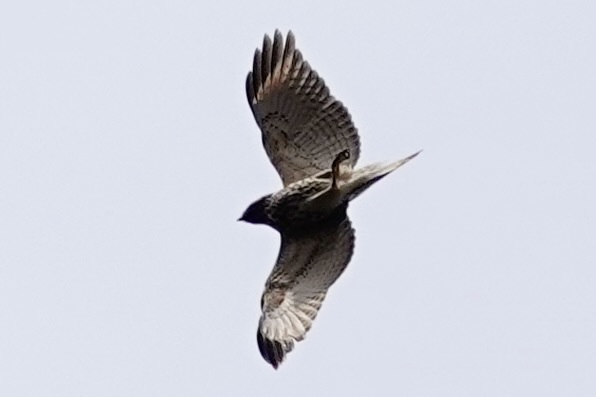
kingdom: Animalia
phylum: Chordata
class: Aves
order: Accipitriformes
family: Accipitridae
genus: Buteo
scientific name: Buteo lineatus
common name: Red-shouldered hawk
